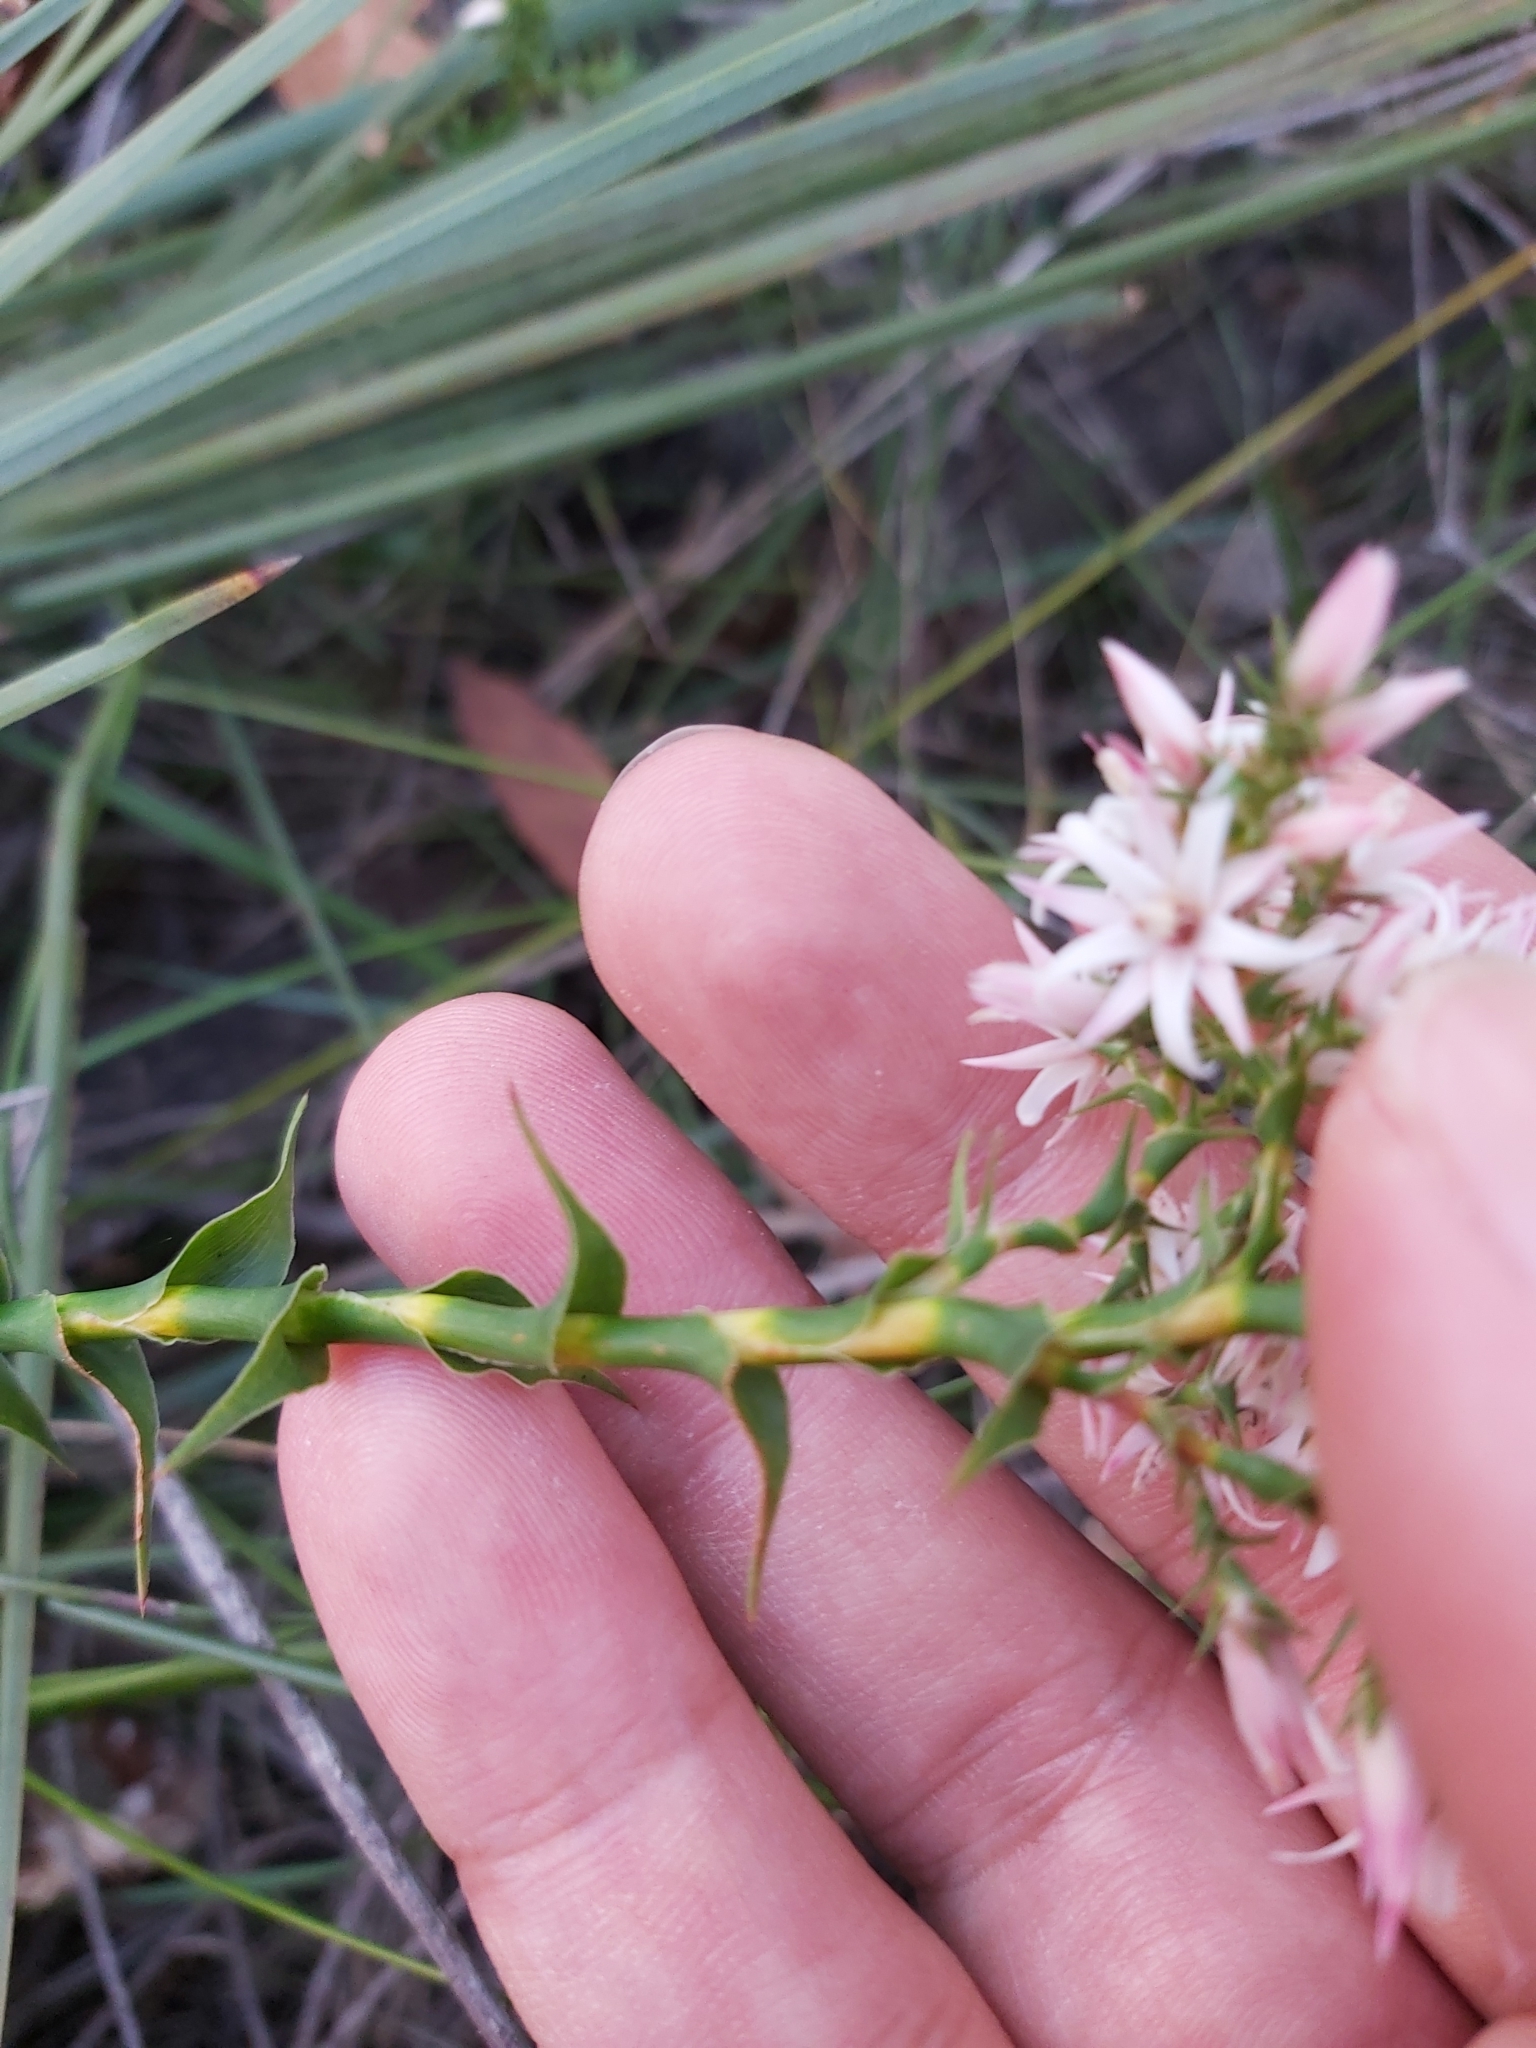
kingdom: Plantae
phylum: Tracheophyta
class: Magnoliopsida
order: Ericales
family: Ericaceae
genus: Sprengelia
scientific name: Sprengelia incarnata
